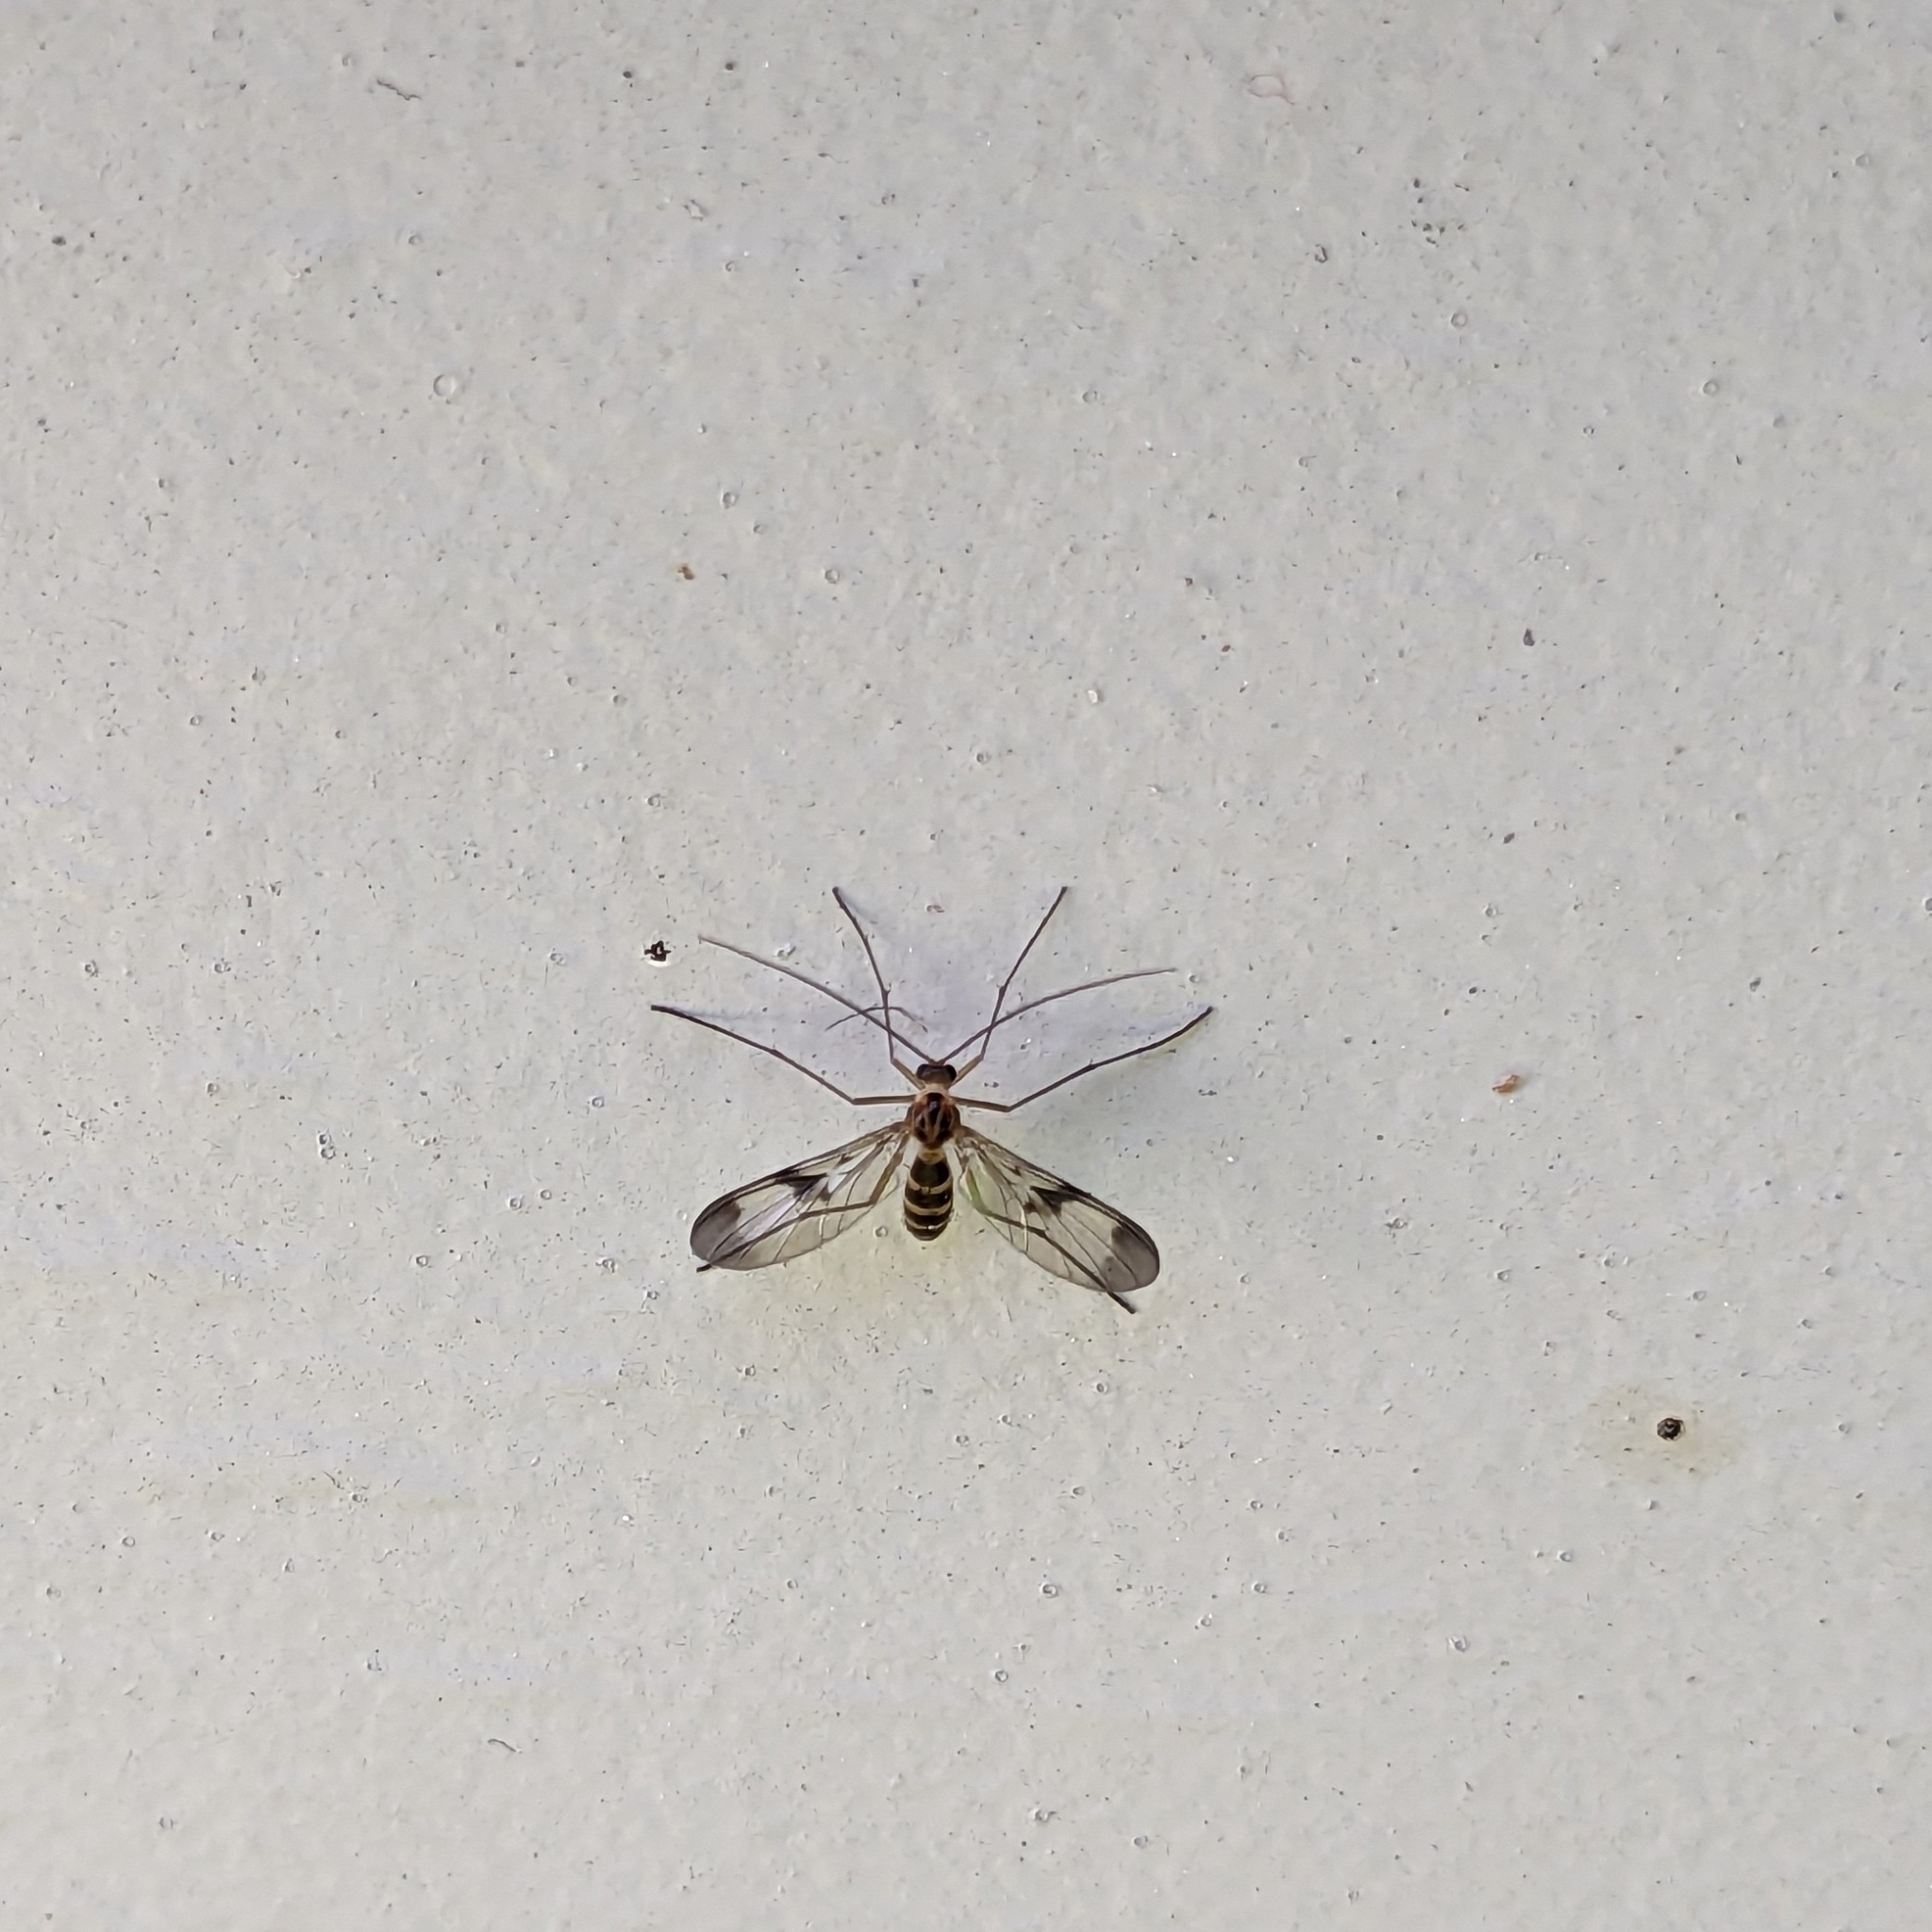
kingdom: Animalia
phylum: Arthropoda
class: Insecta
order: Diptera
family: Keroplatidae
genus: Macrocera
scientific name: Macrocera scoparia
